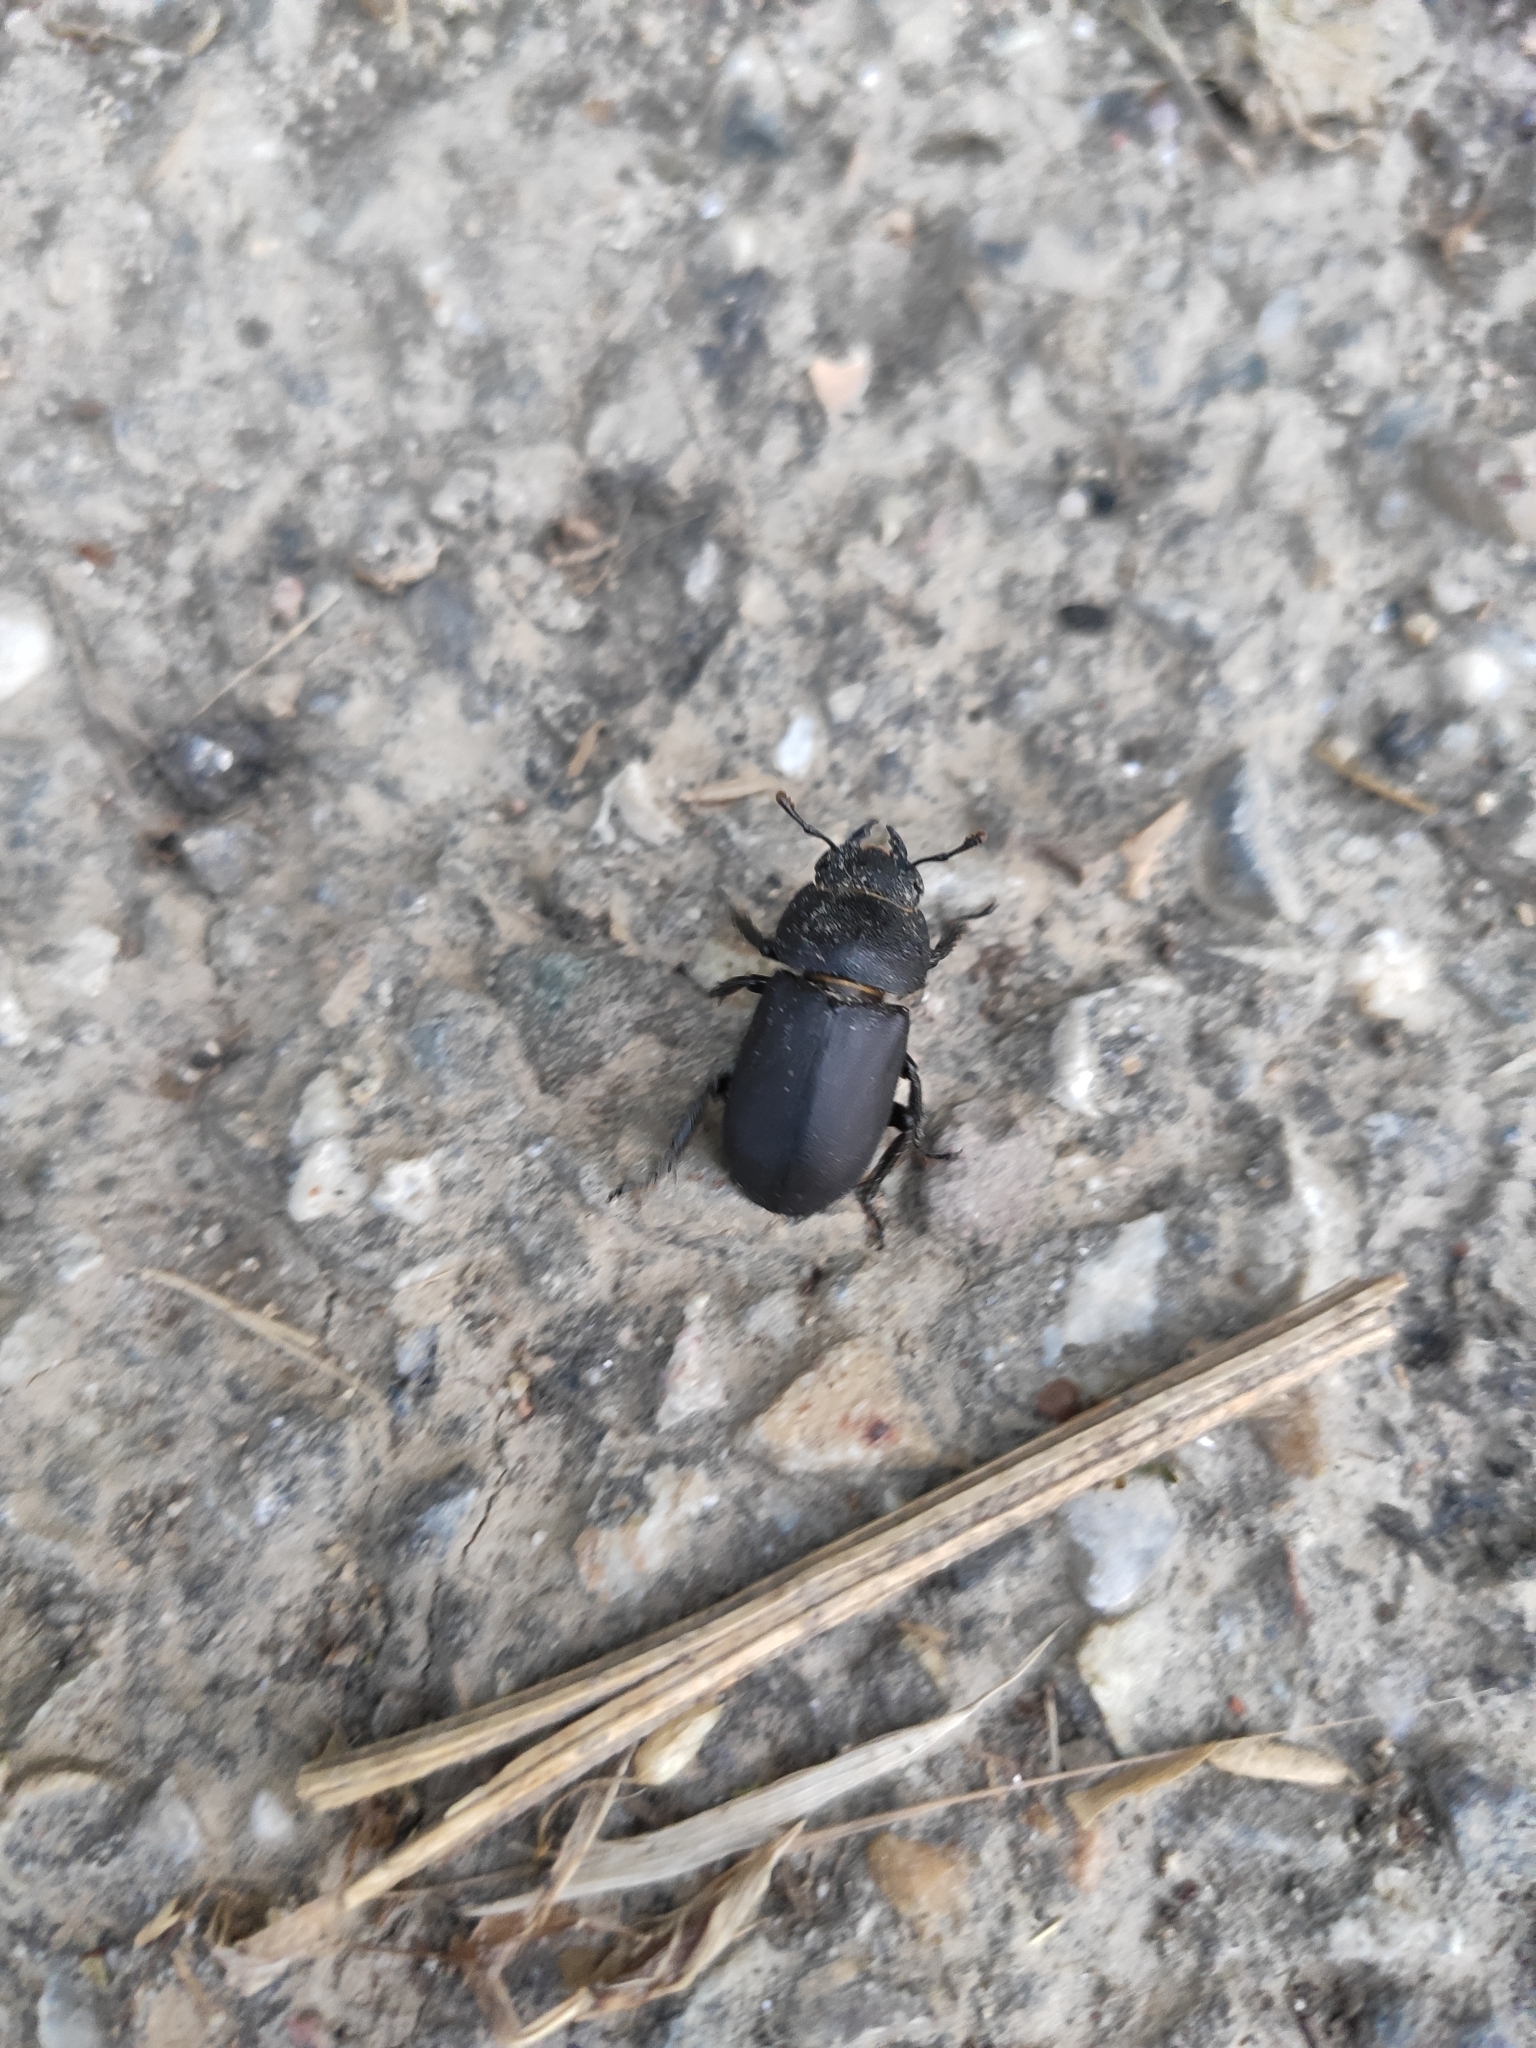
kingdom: Animalia
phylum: Arthropoda
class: Insecta
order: Coleoptera
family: Lucanidae
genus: Dorcus
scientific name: Dorcus parallelipipedus
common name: Lesser stag beetle
